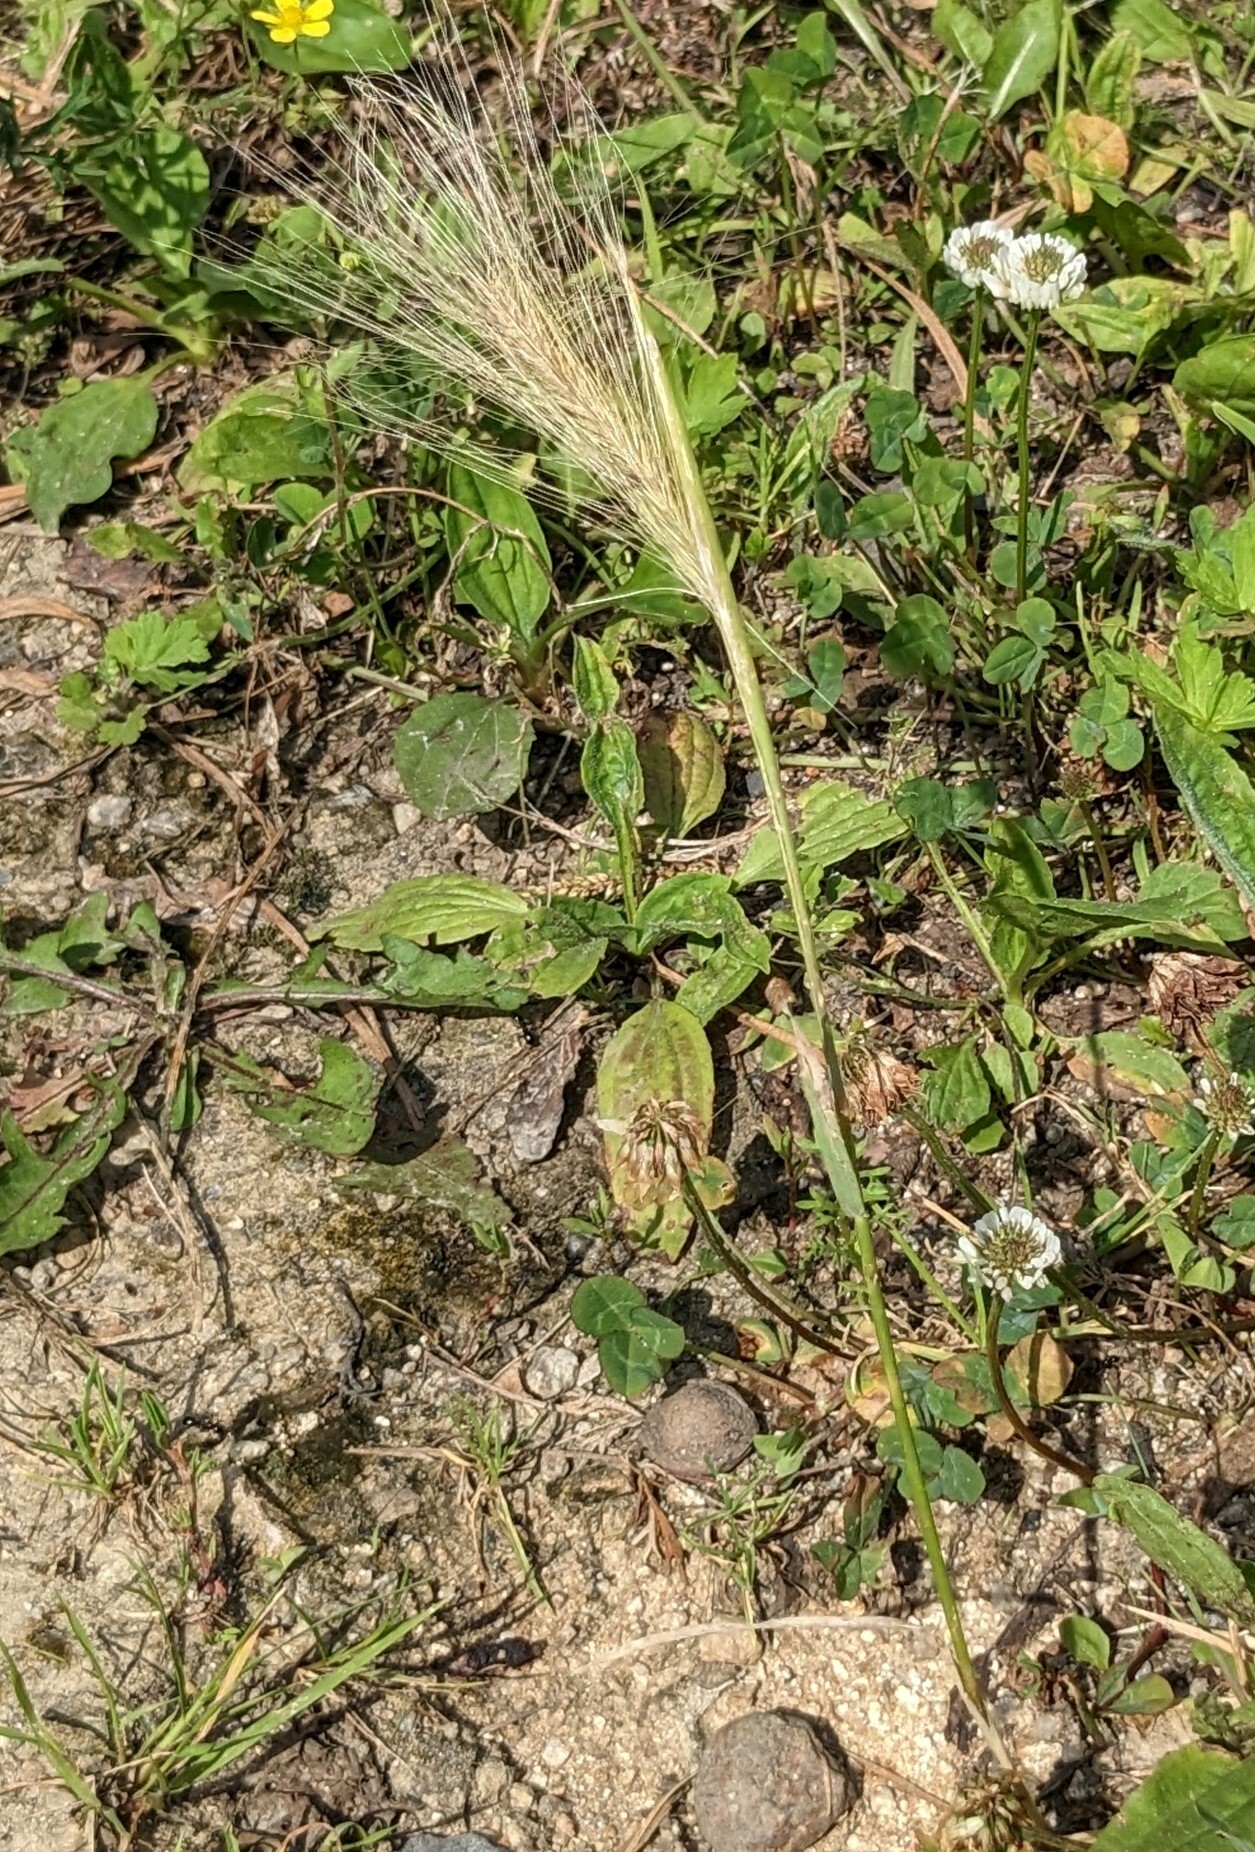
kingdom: Plantae
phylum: Tracheophyta
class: Liliopsida
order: Poales
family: Poaceae
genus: Hordeum
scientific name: Hordeum jubatum
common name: Foxtail barley
